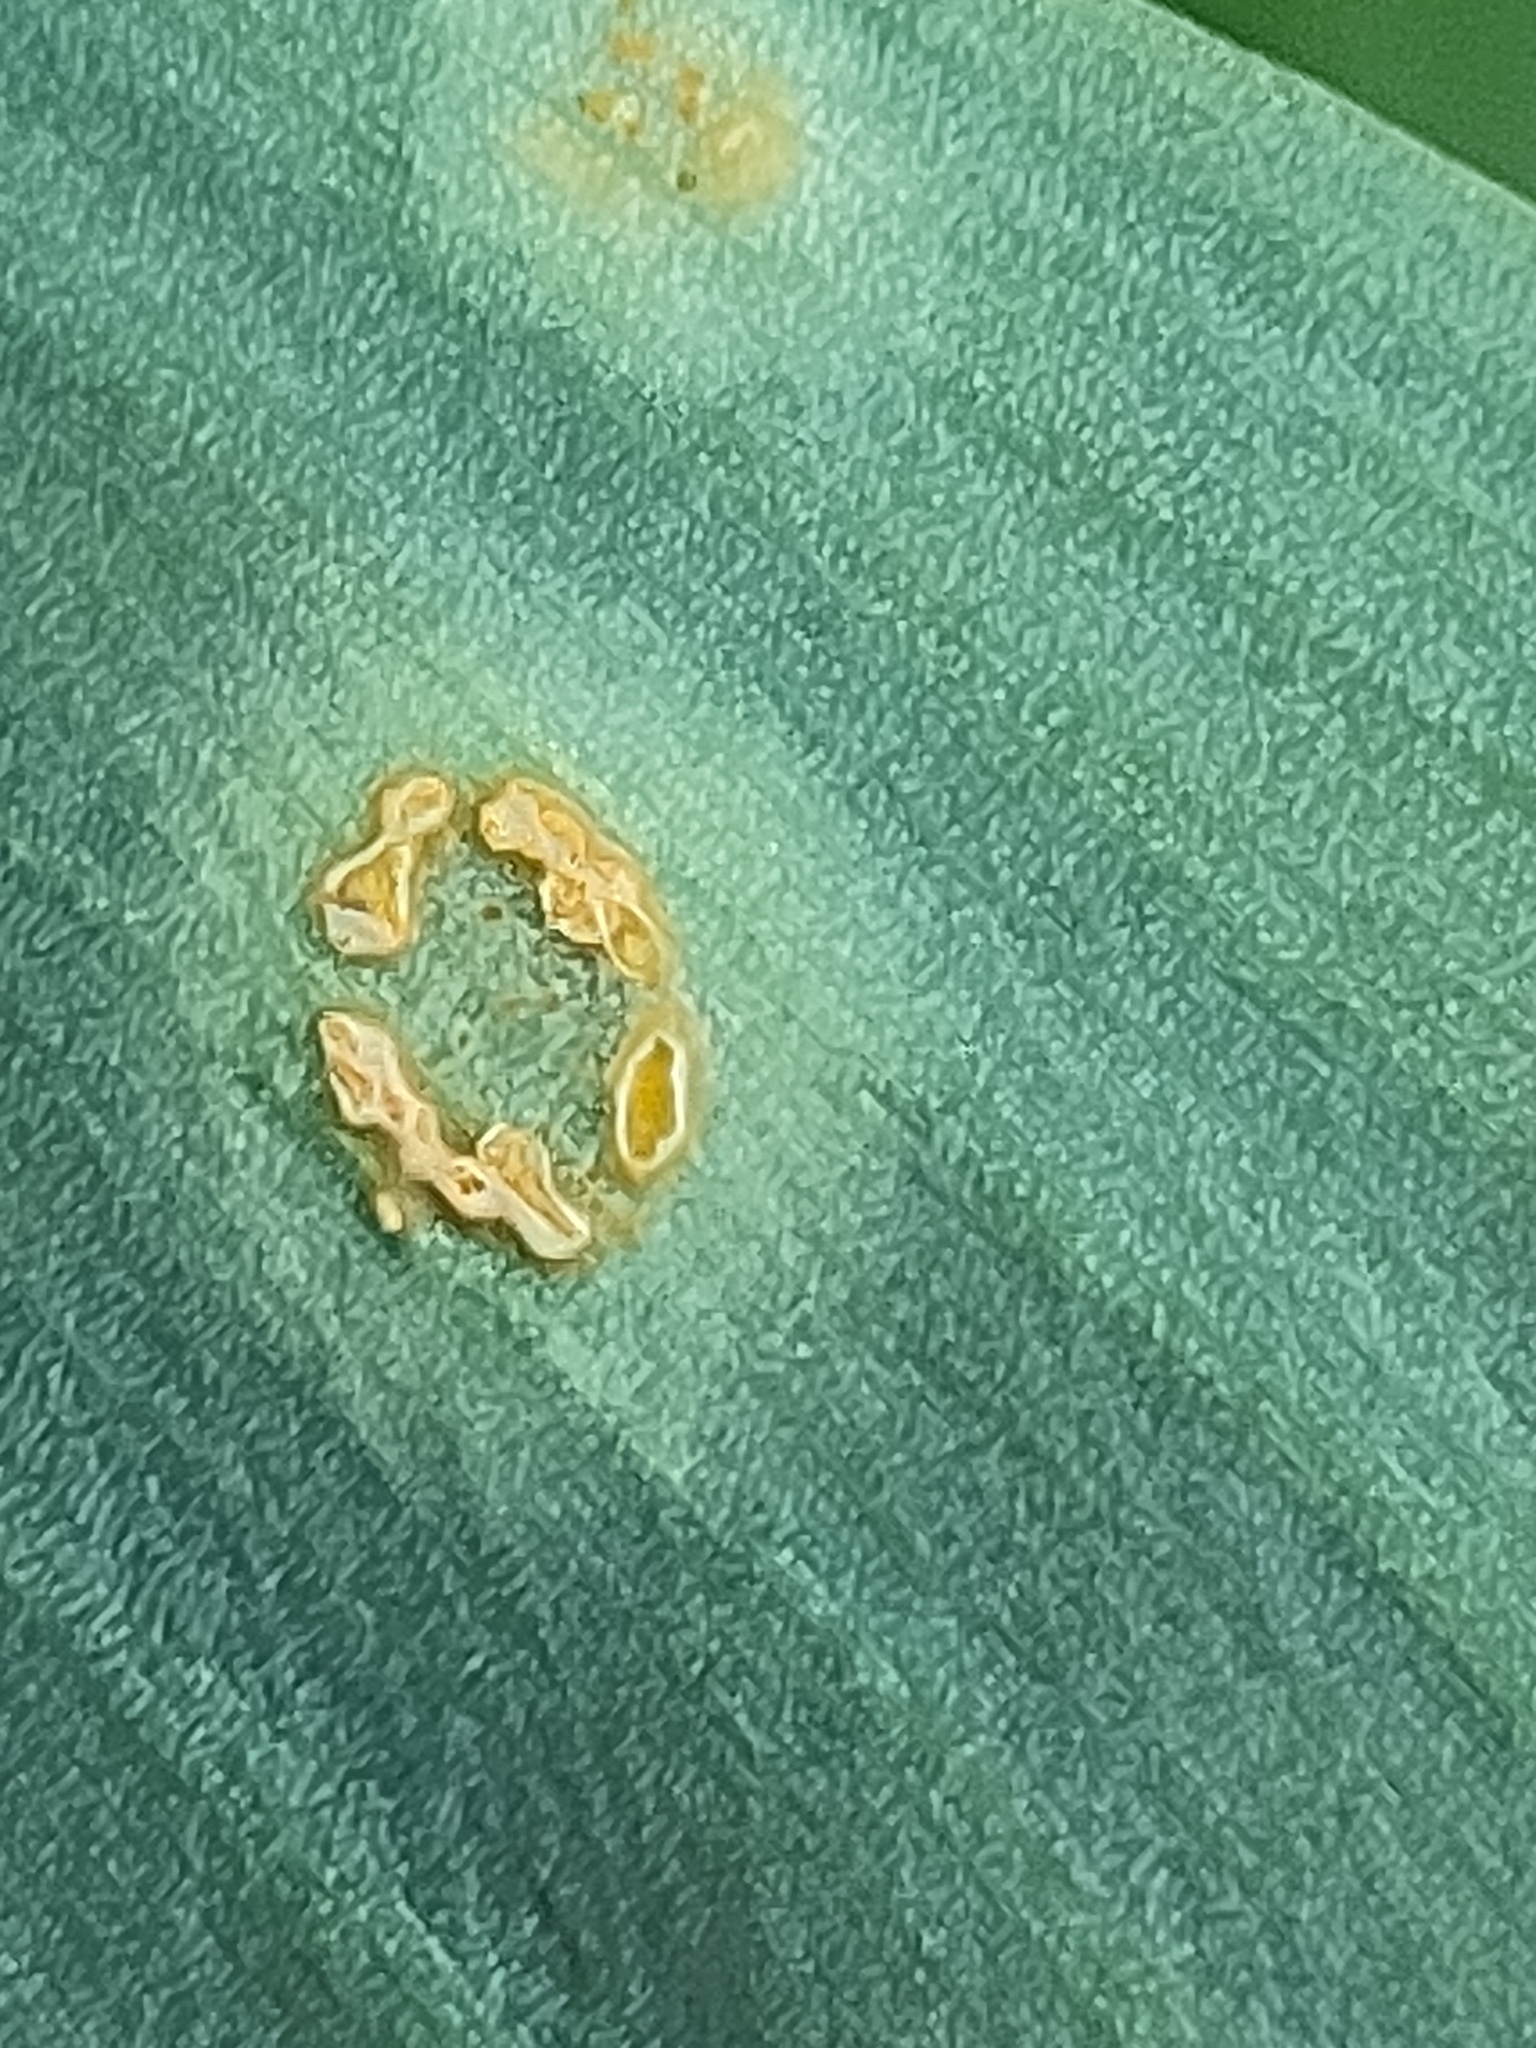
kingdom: Fungi
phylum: Basidiomycota
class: Pucciniomycetes
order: Pucciniales
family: Pucciniaceae
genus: Caeoma
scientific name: Caeoma allii-ursini
